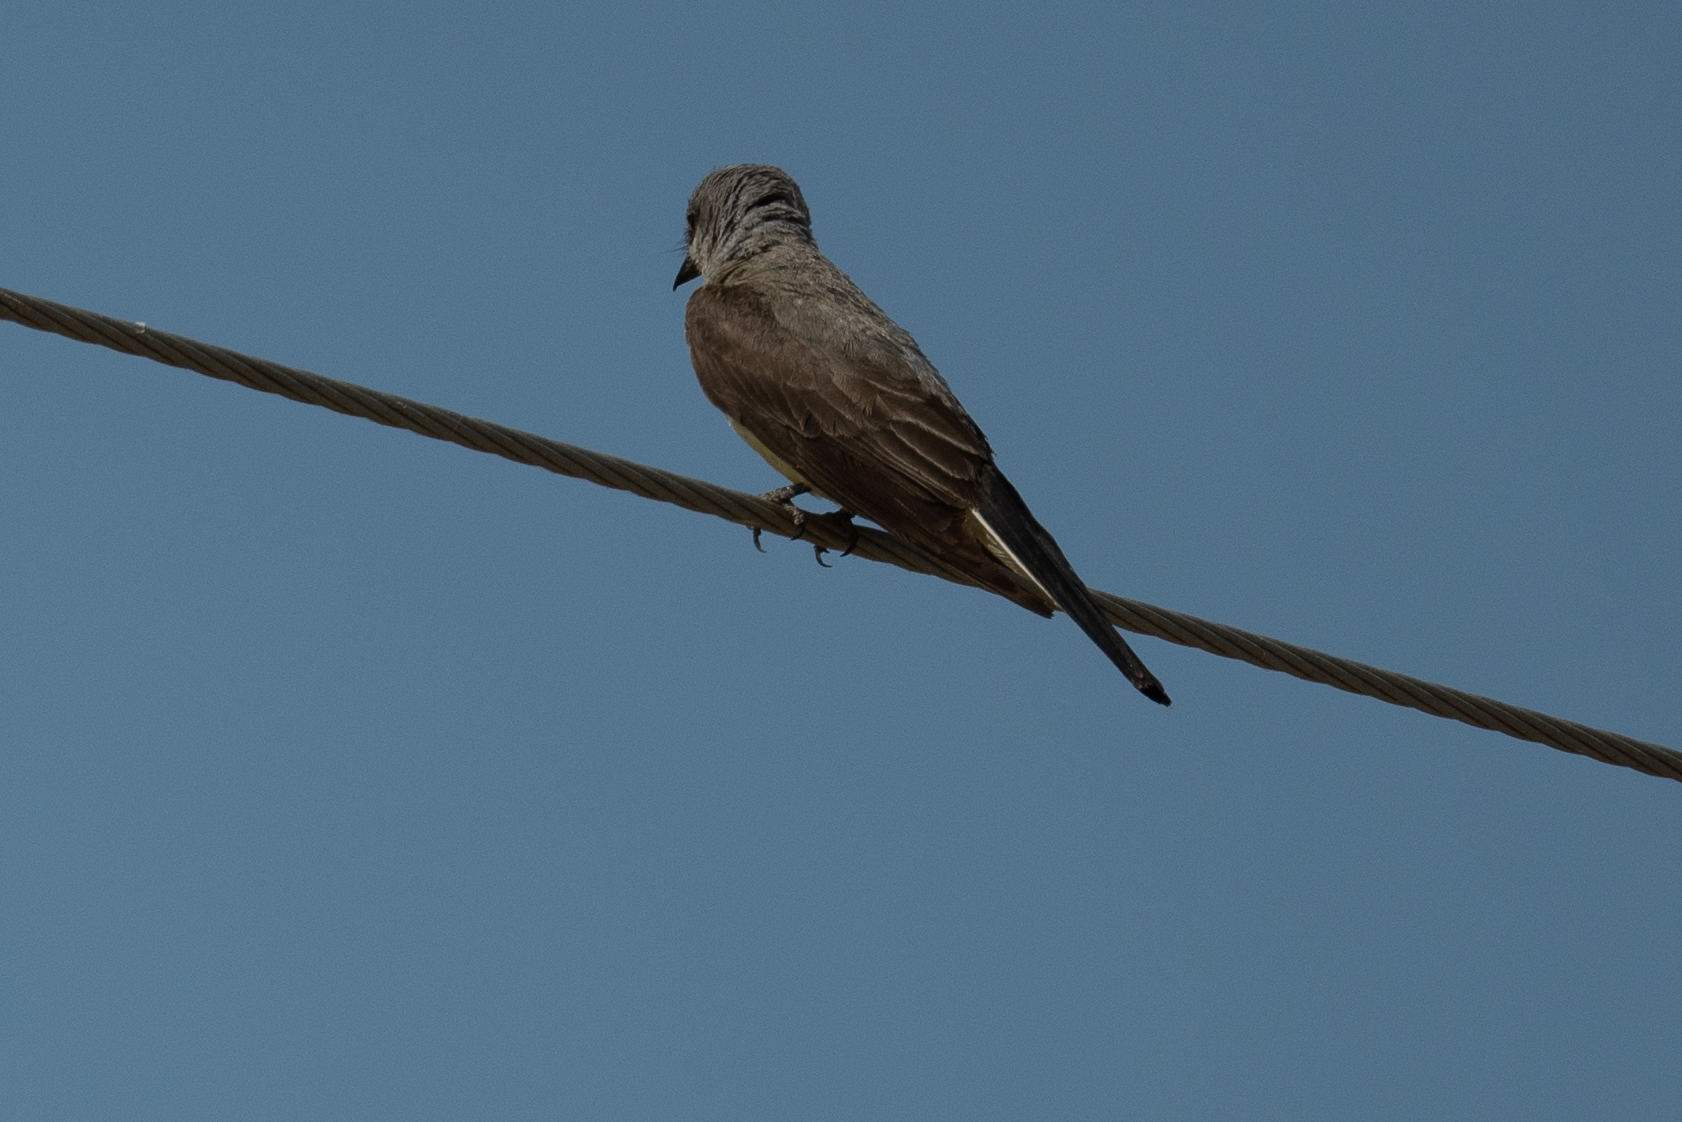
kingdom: Animalia
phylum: Chordata
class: Aves
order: Passeriformes
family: Tyrannidae
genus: Tyrannus
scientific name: Tyrannus verticalis
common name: Western kingbird
